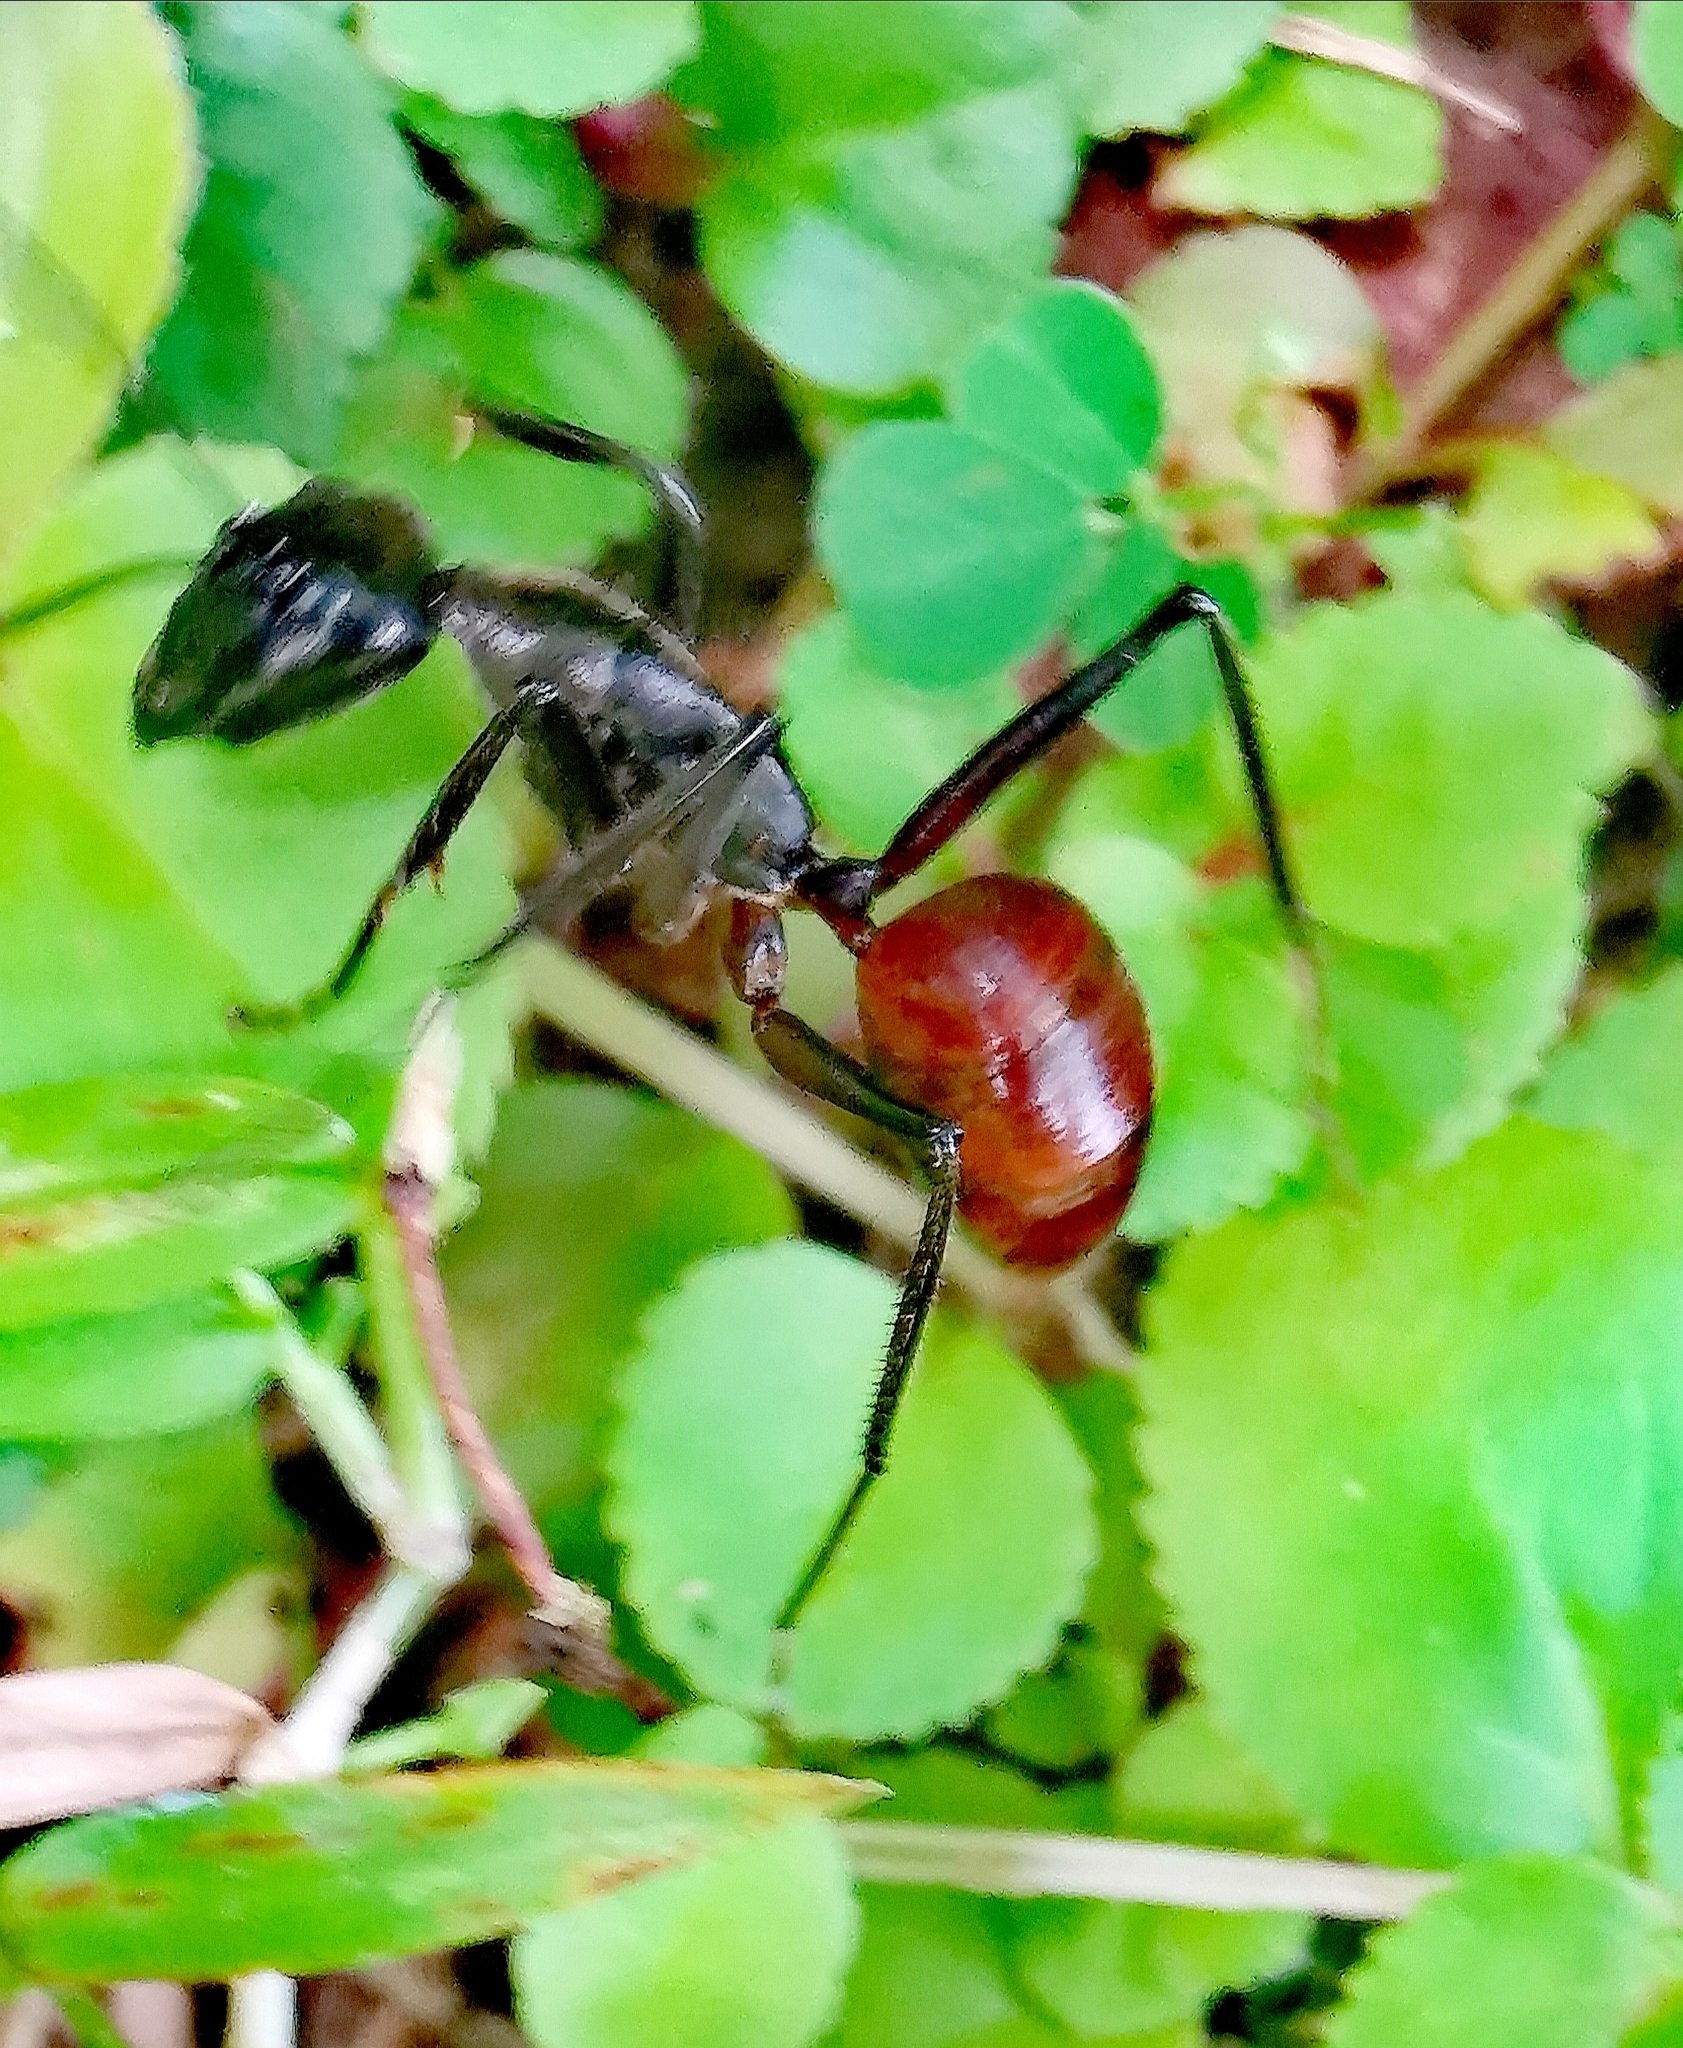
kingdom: Animalia
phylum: Arthropoda
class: Insecta
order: Hymenoptera
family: Formicidae
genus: Dinomyrmex
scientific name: Dinomyrmex
